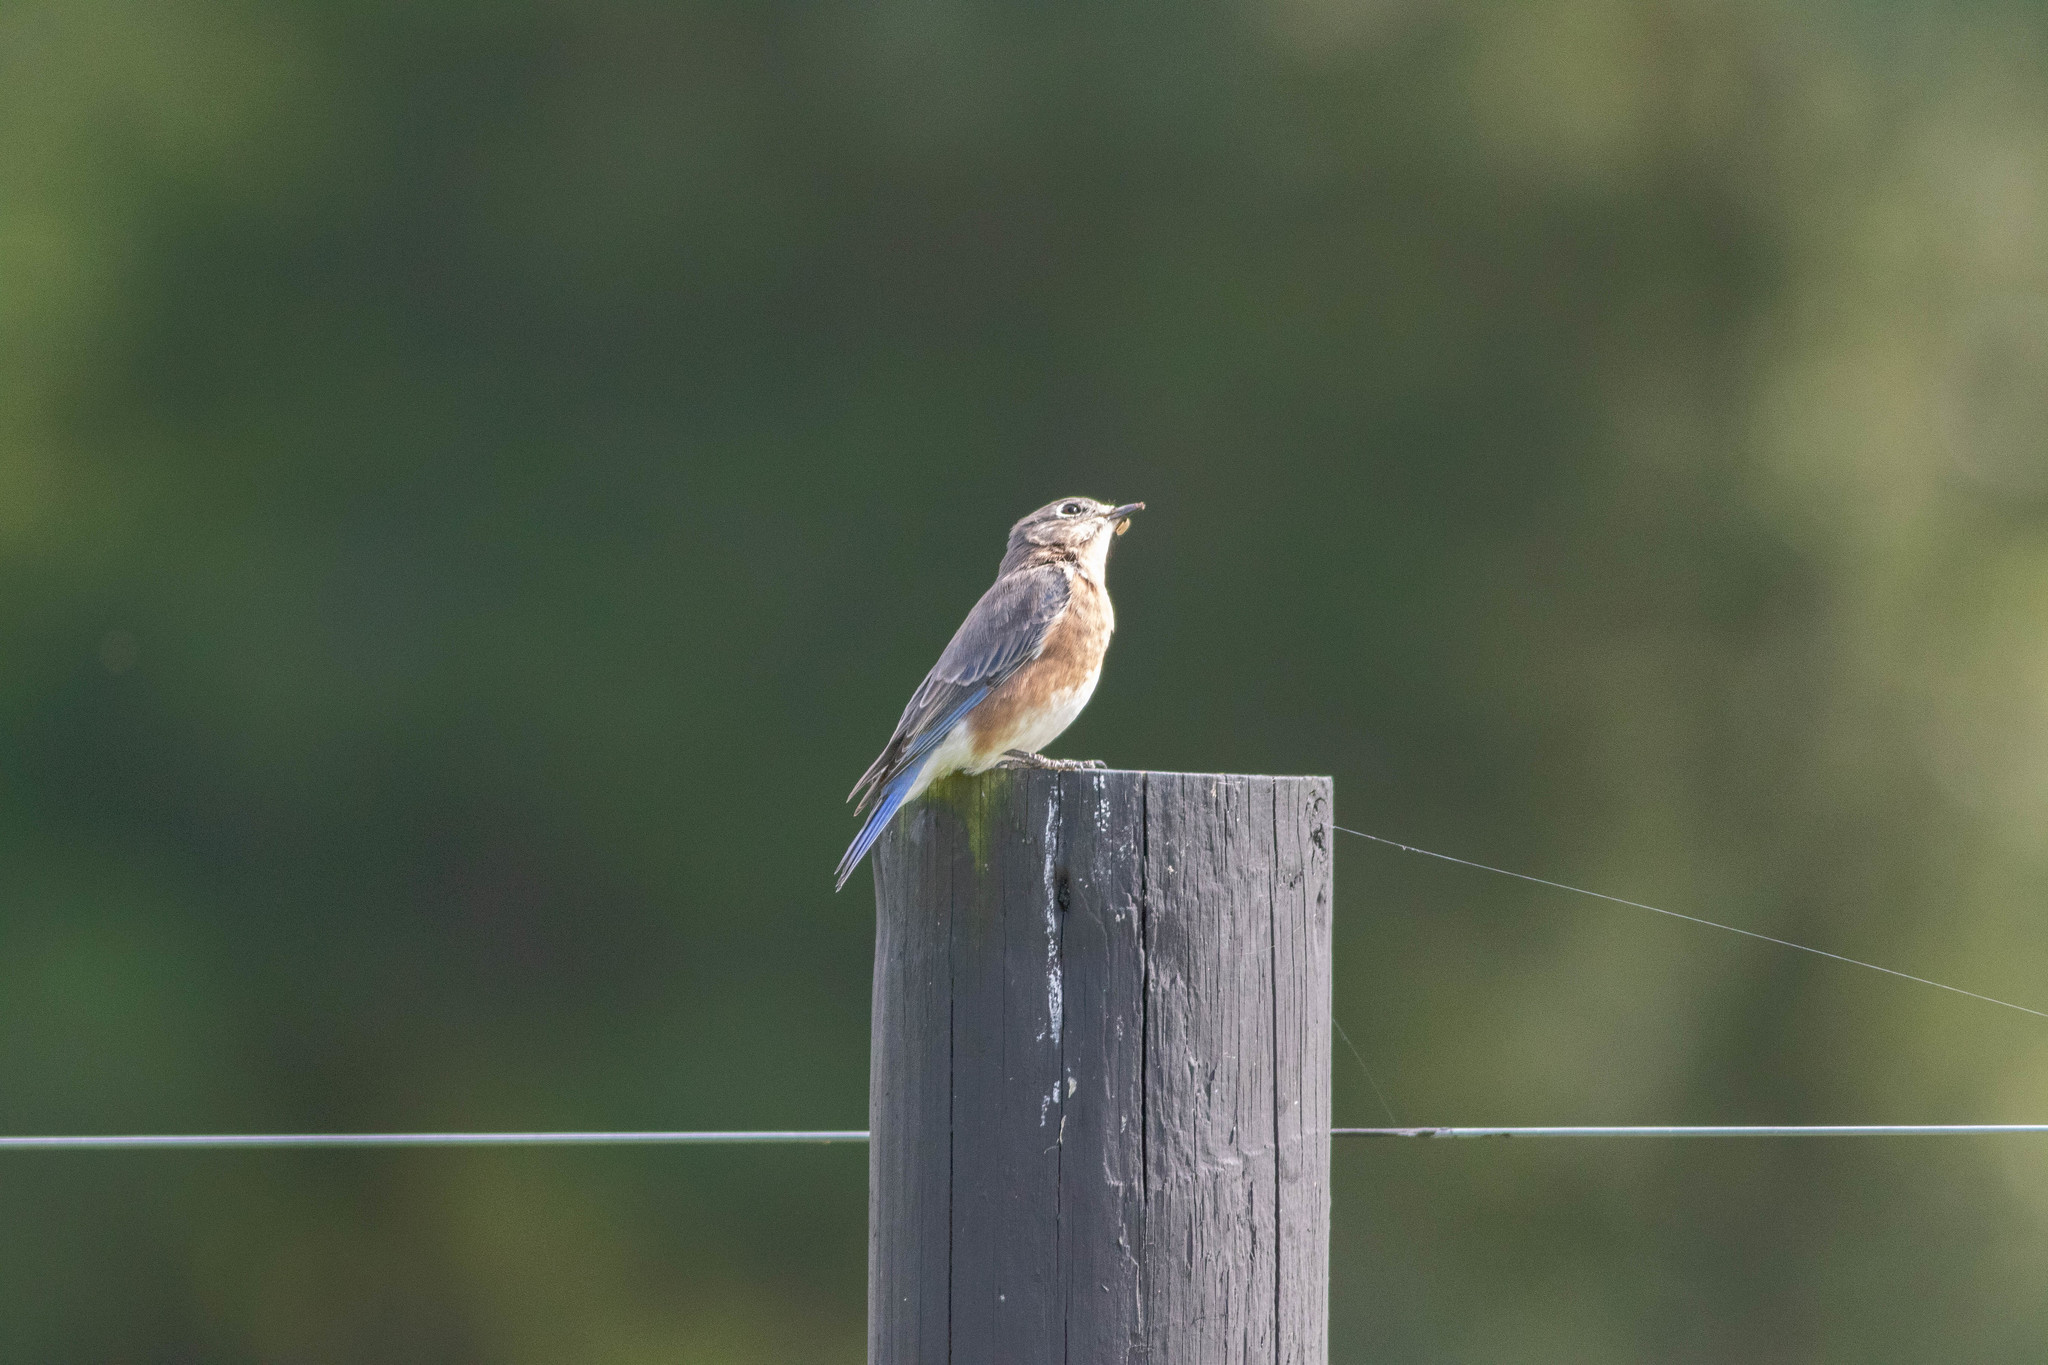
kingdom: Animalia
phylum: Chordata
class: Aves
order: Passeriformes
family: Turdidae
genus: Sialia
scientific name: Sialia sialis
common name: Eastern bluebird
